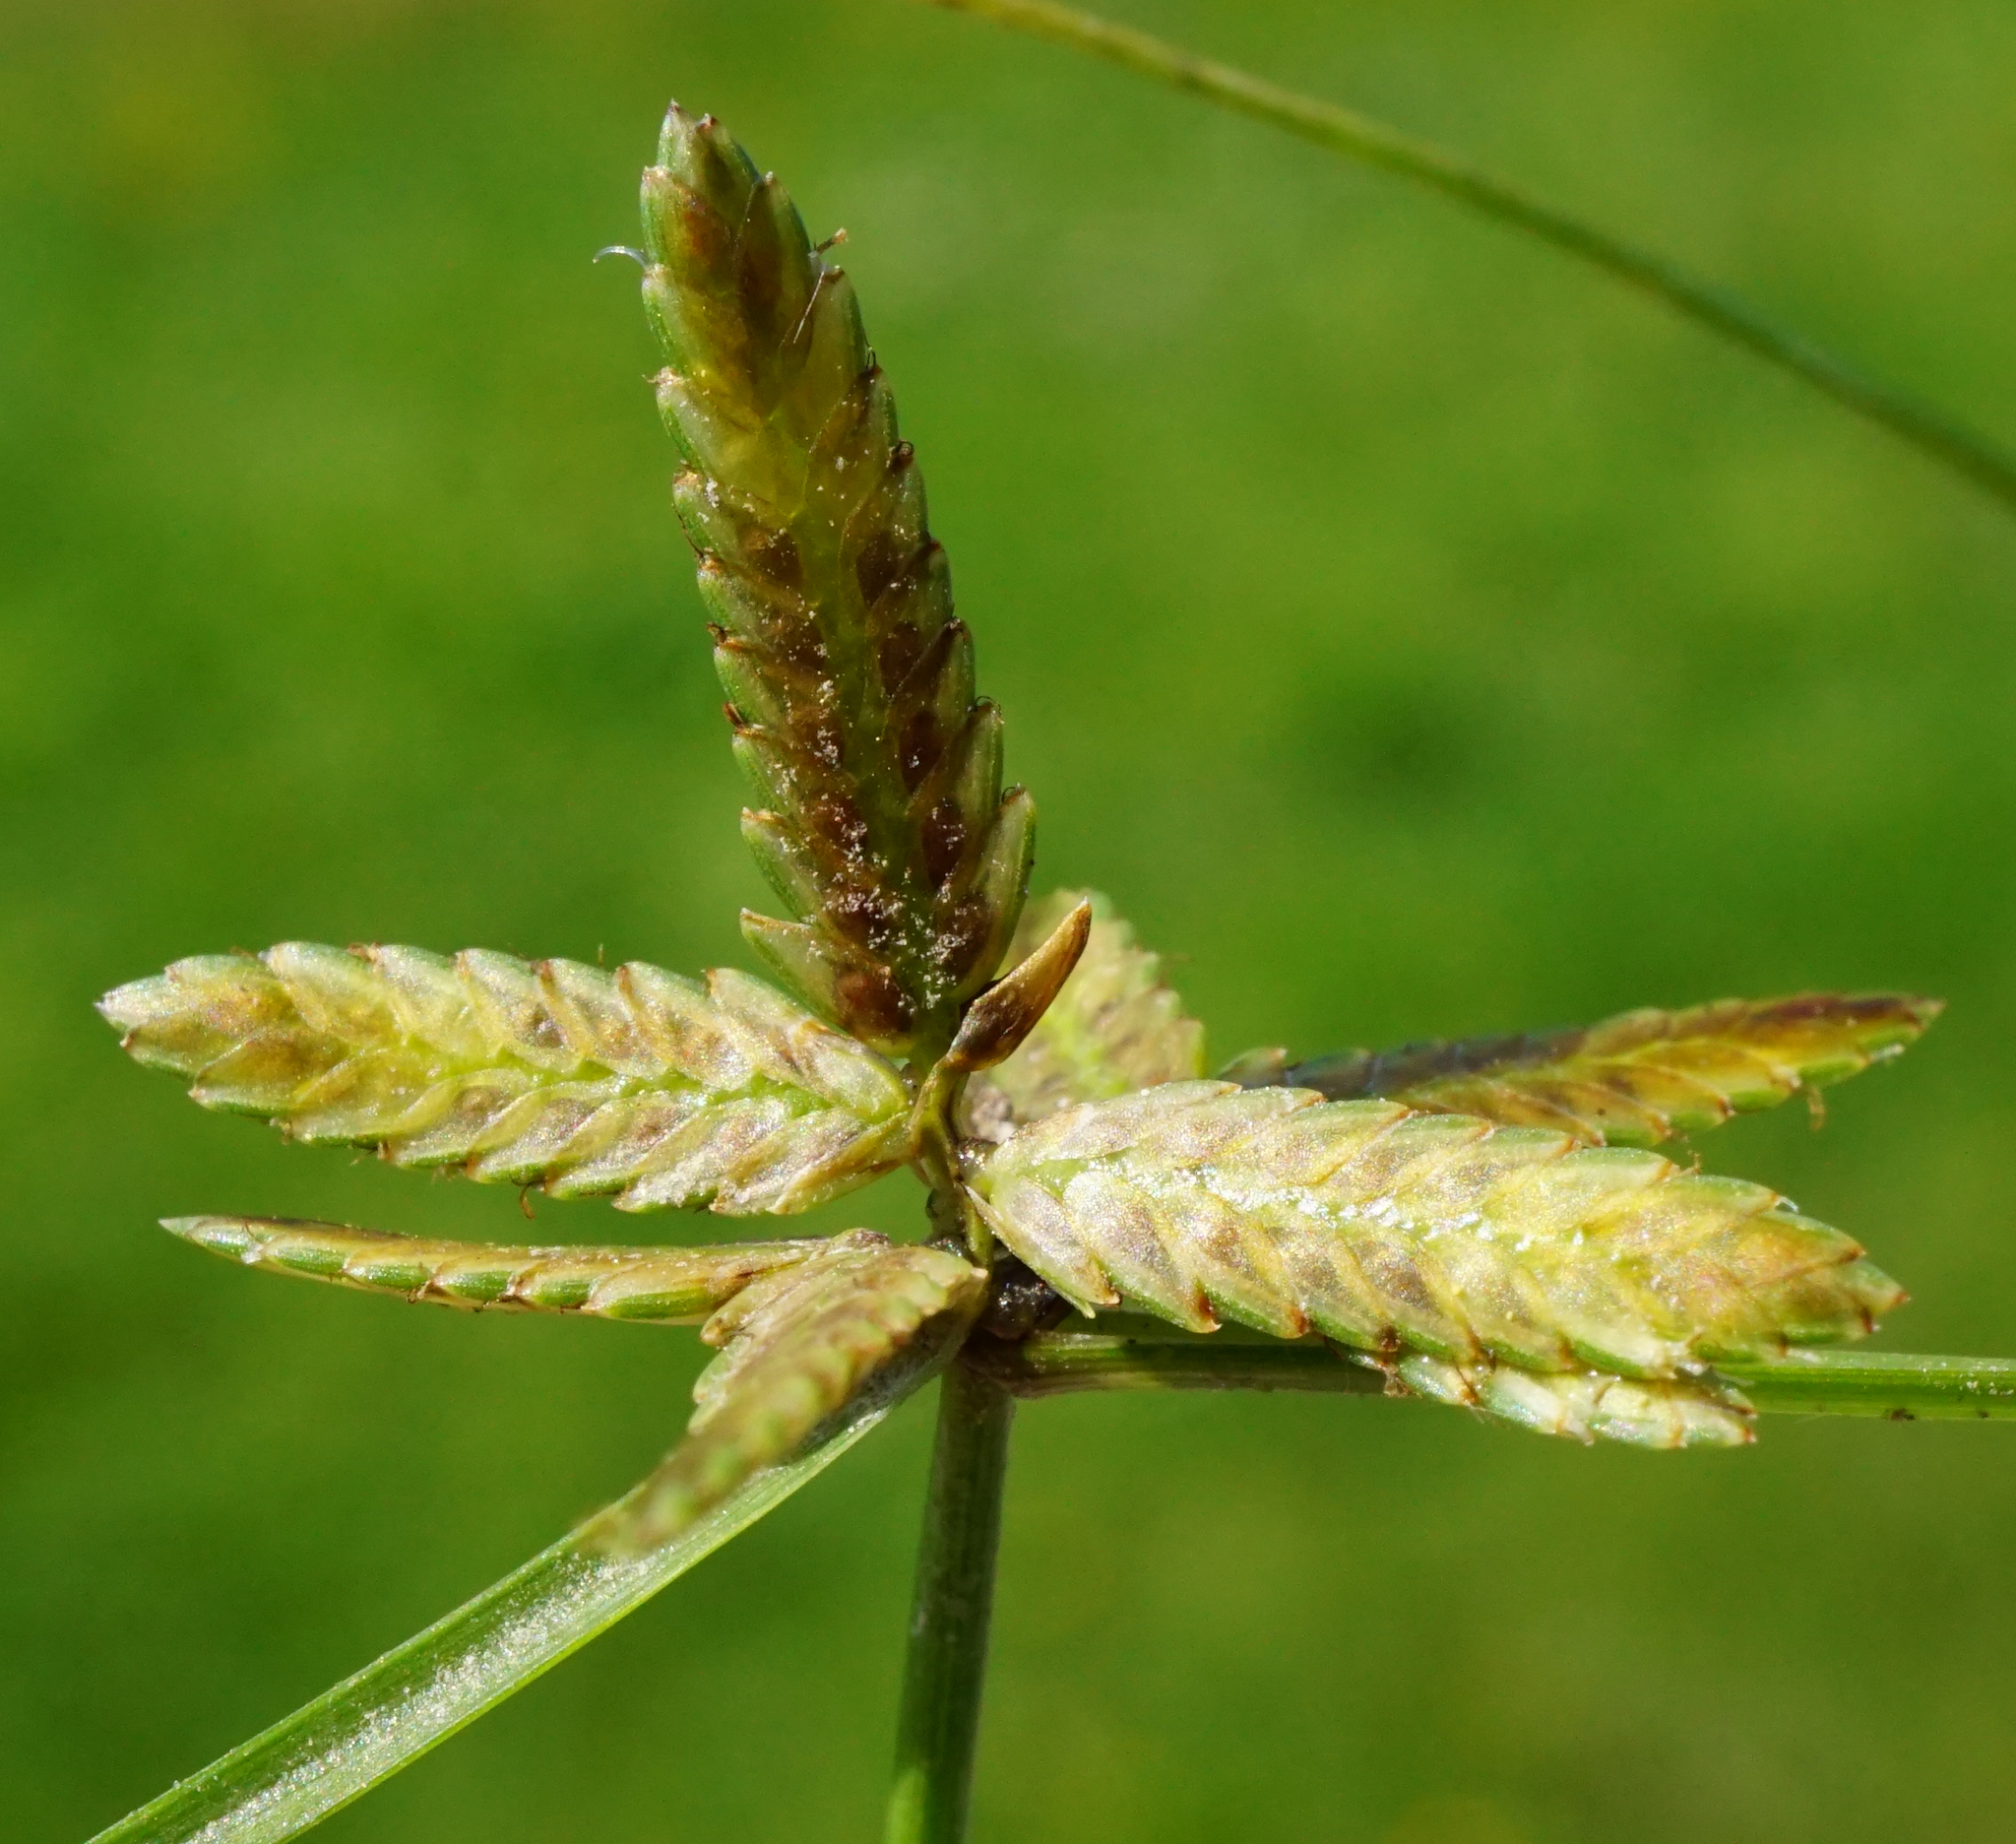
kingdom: Plantae
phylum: Tracheophyta
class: Liliopsida
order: Poales
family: Cyperaceae
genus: Cyperus
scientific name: Cyperus flavescens
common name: Yellow galingale
